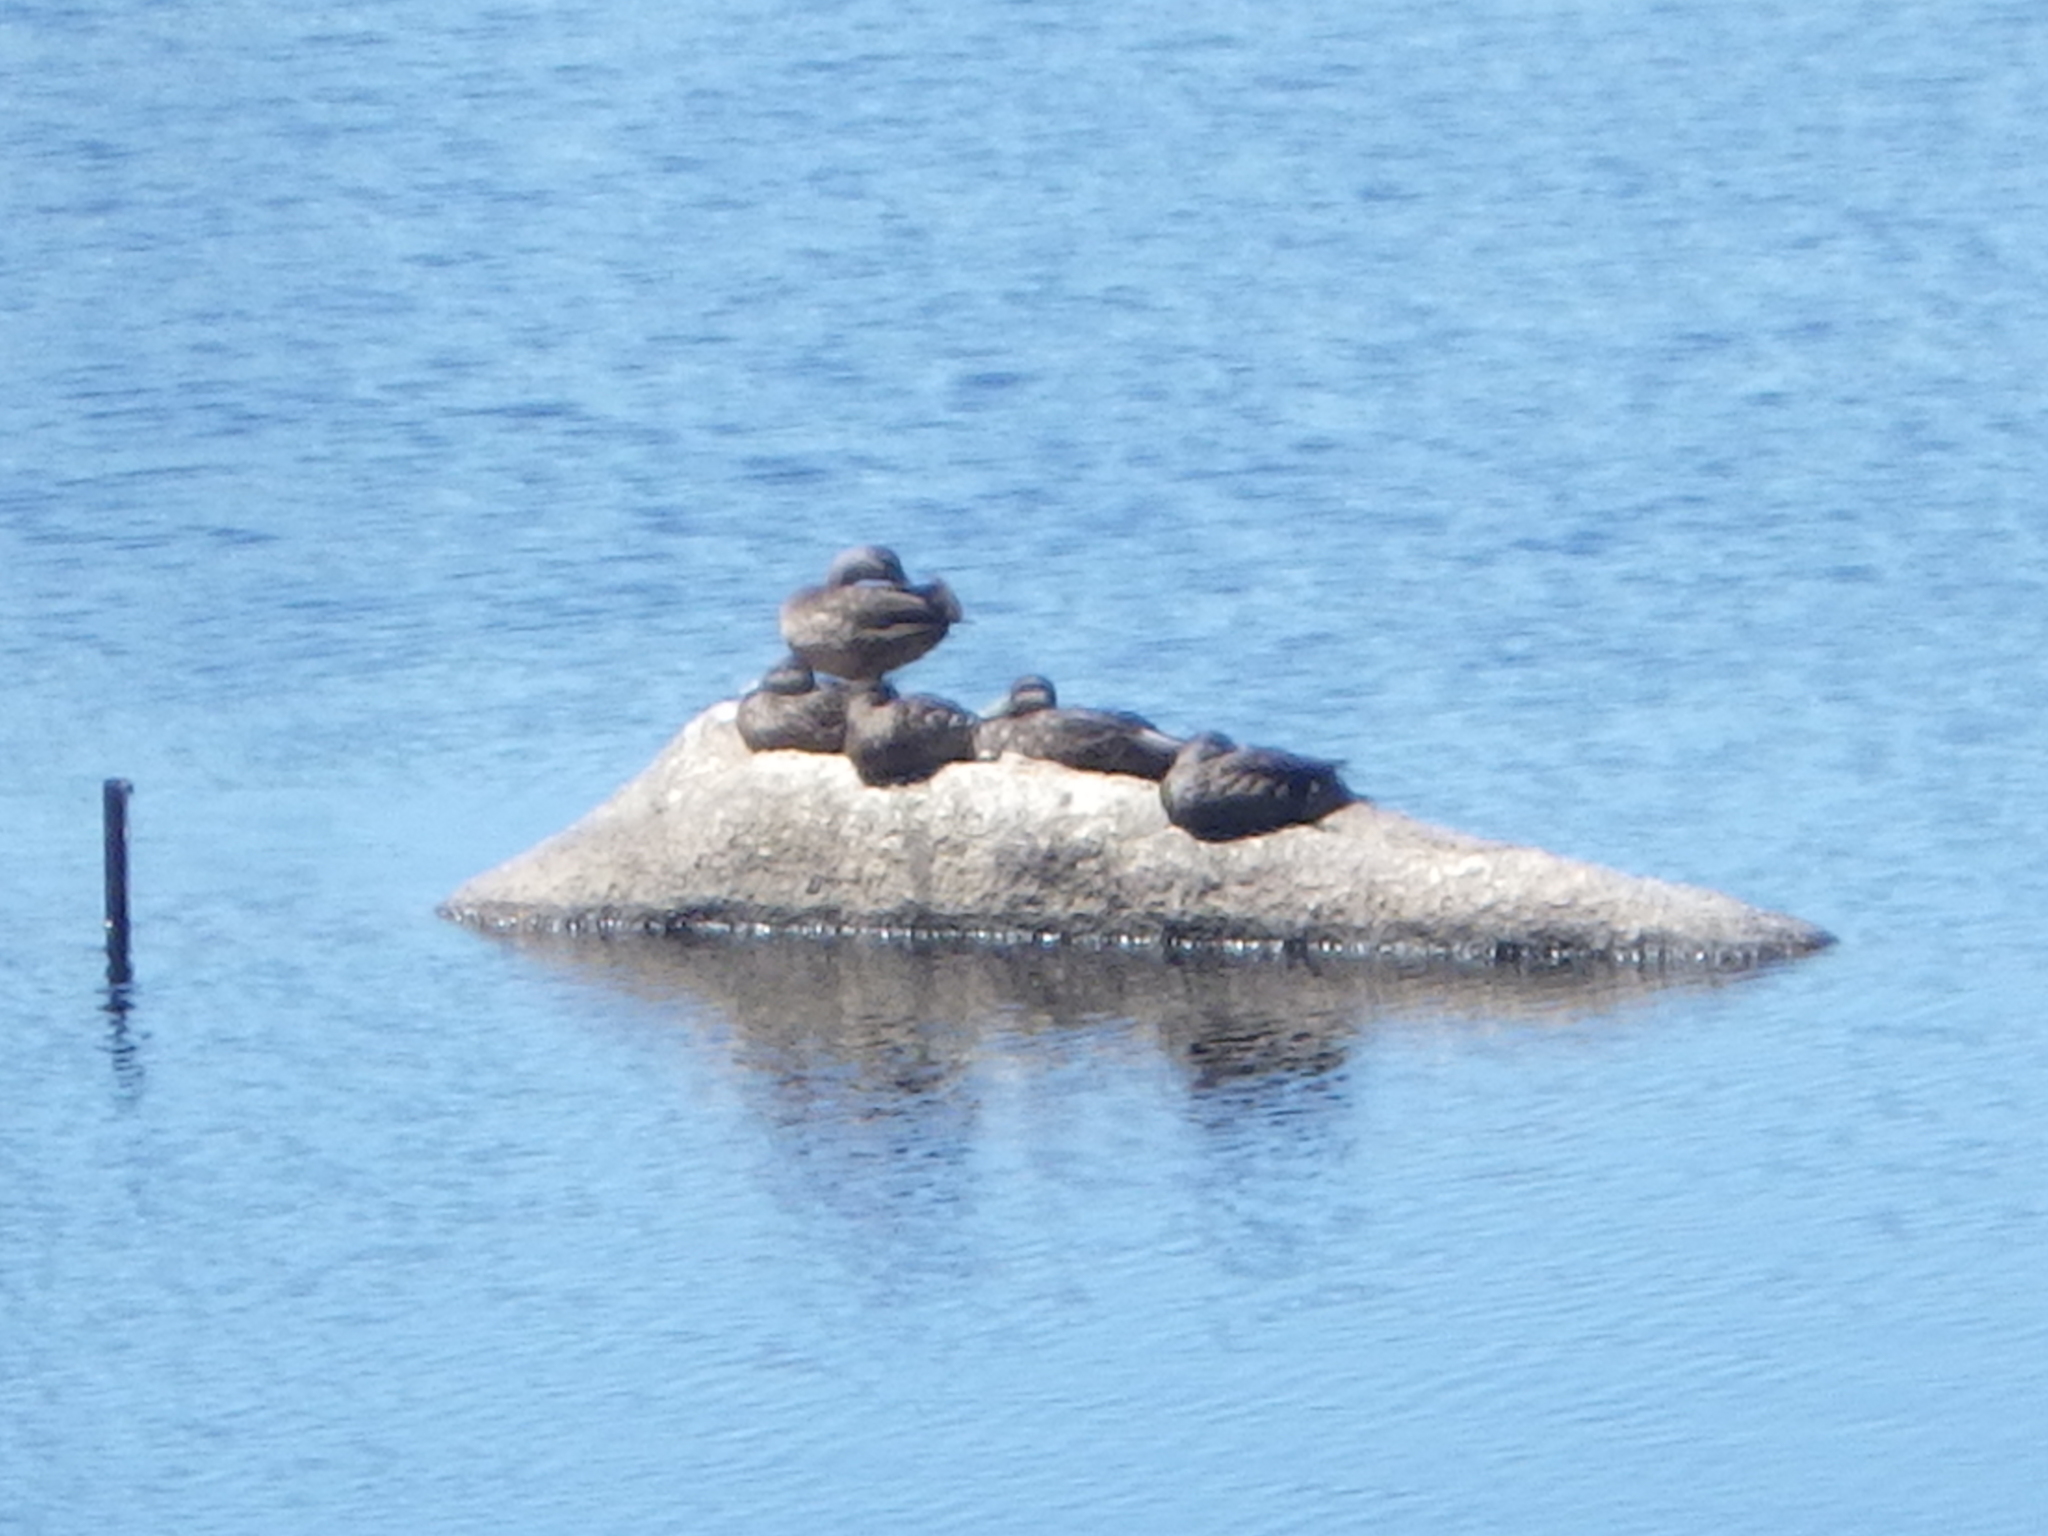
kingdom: Animalia
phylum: Chordata
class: Aves
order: Anseriformes
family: Anatidae
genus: Anas
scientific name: Anas rubripes
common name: American black duck
